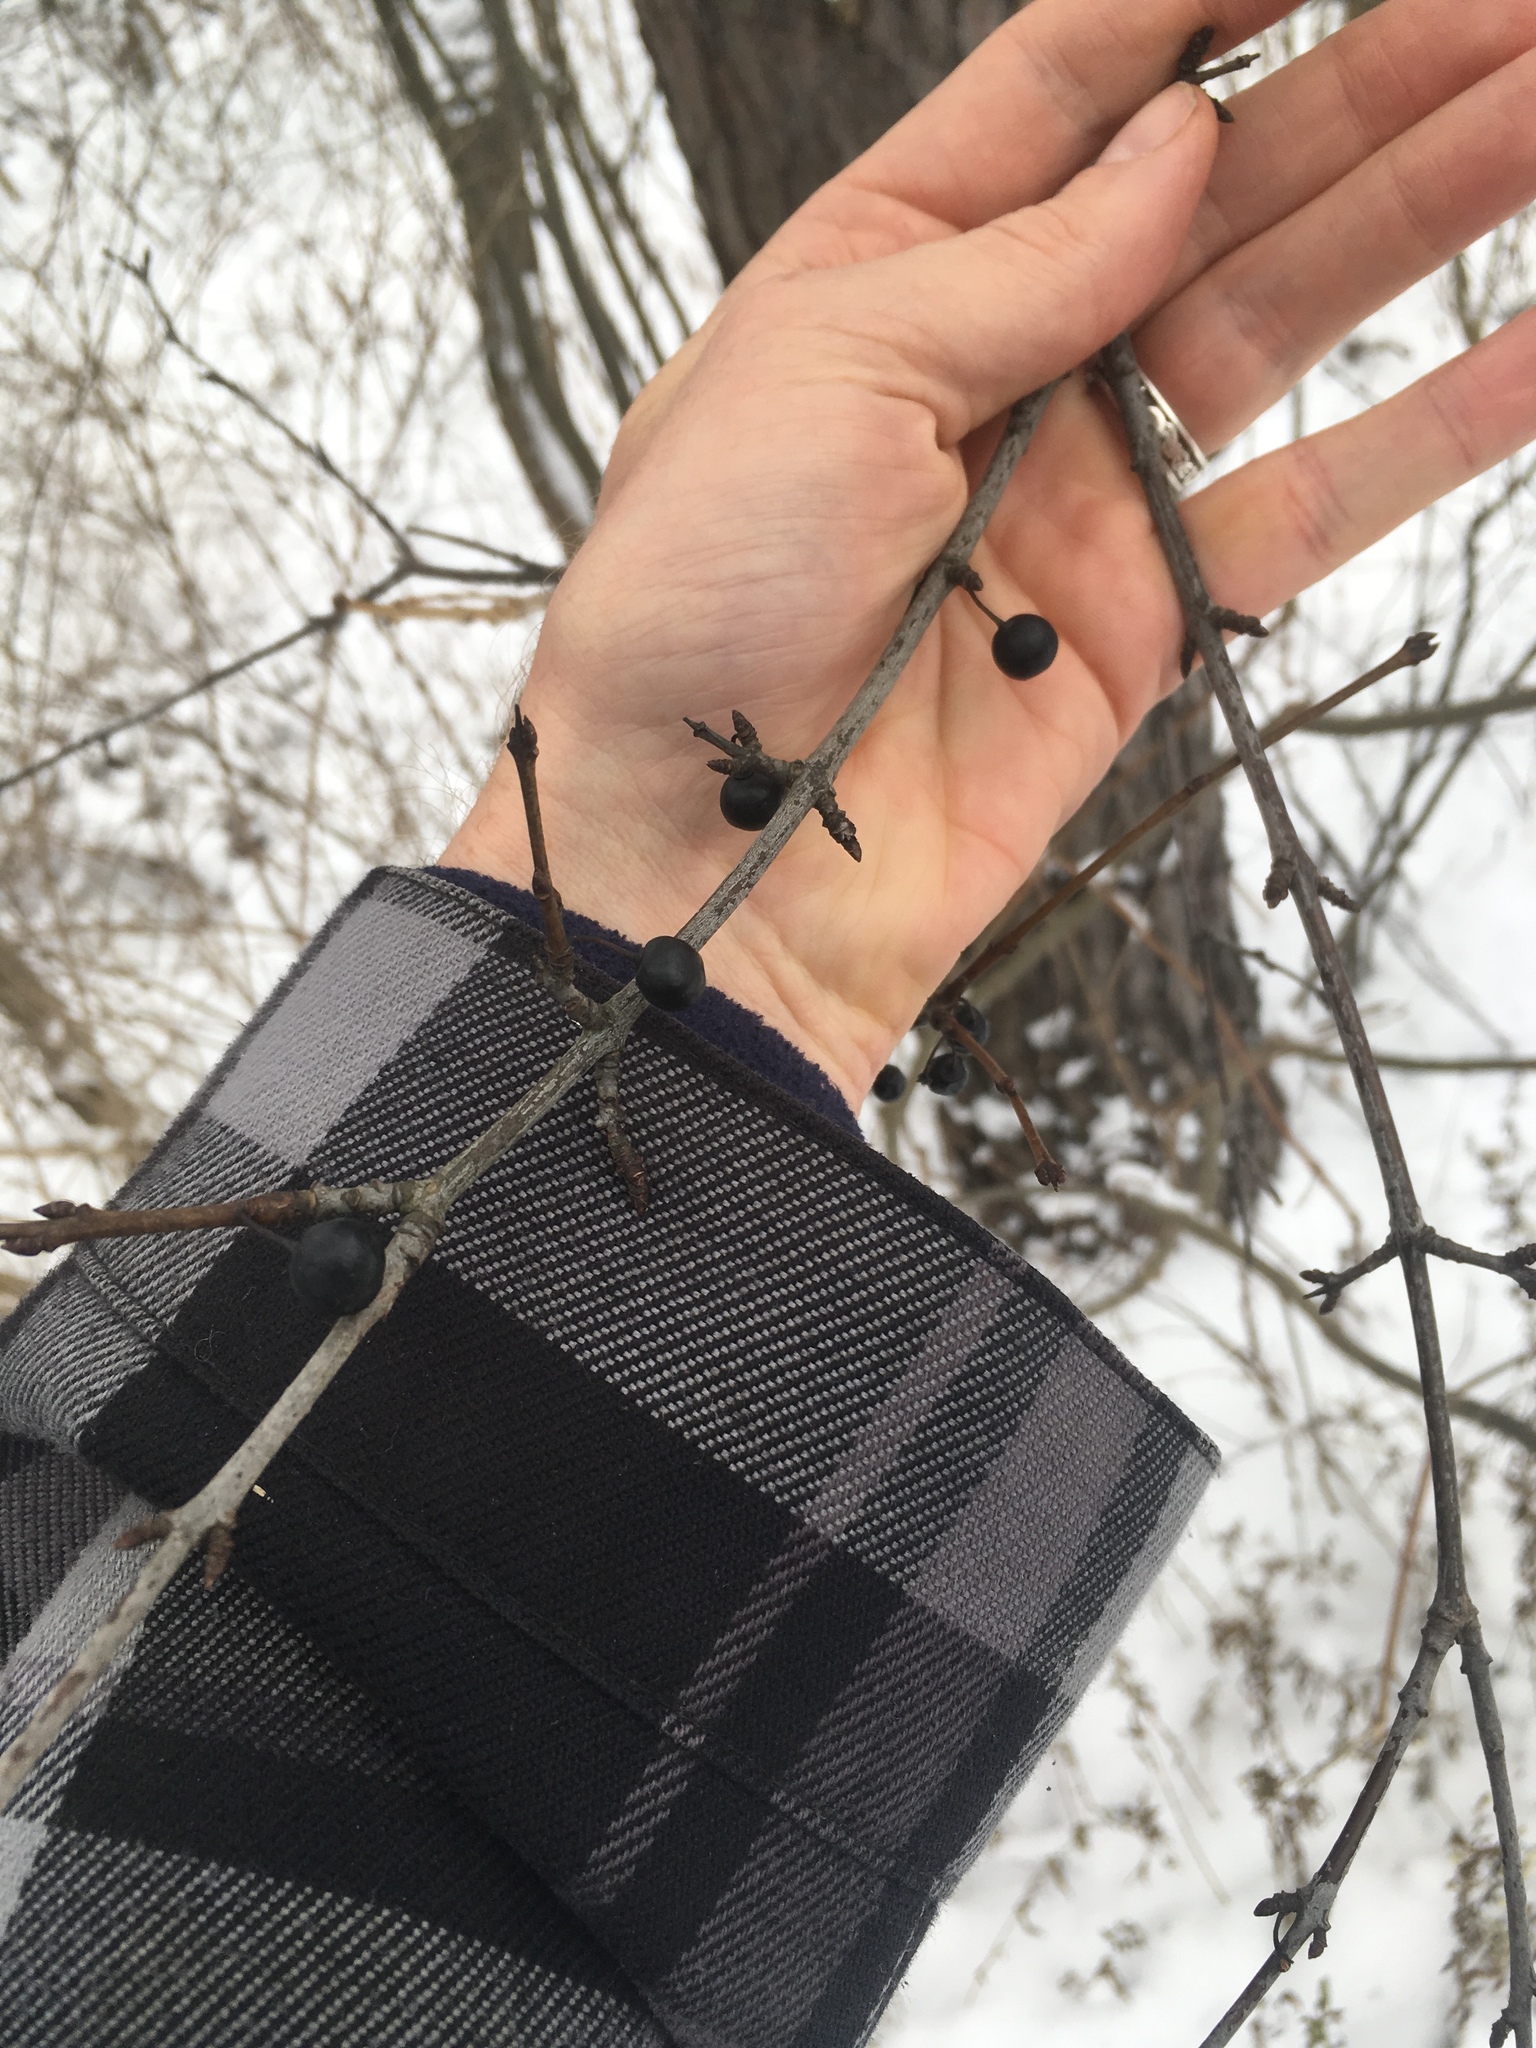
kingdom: Plantae
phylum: Tracheophyta
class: Magnoliopsida
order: Rosales
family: Rhamnaceae
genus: Rhamnus
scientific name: Rhamnus cathartica
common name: Common buckthorn
